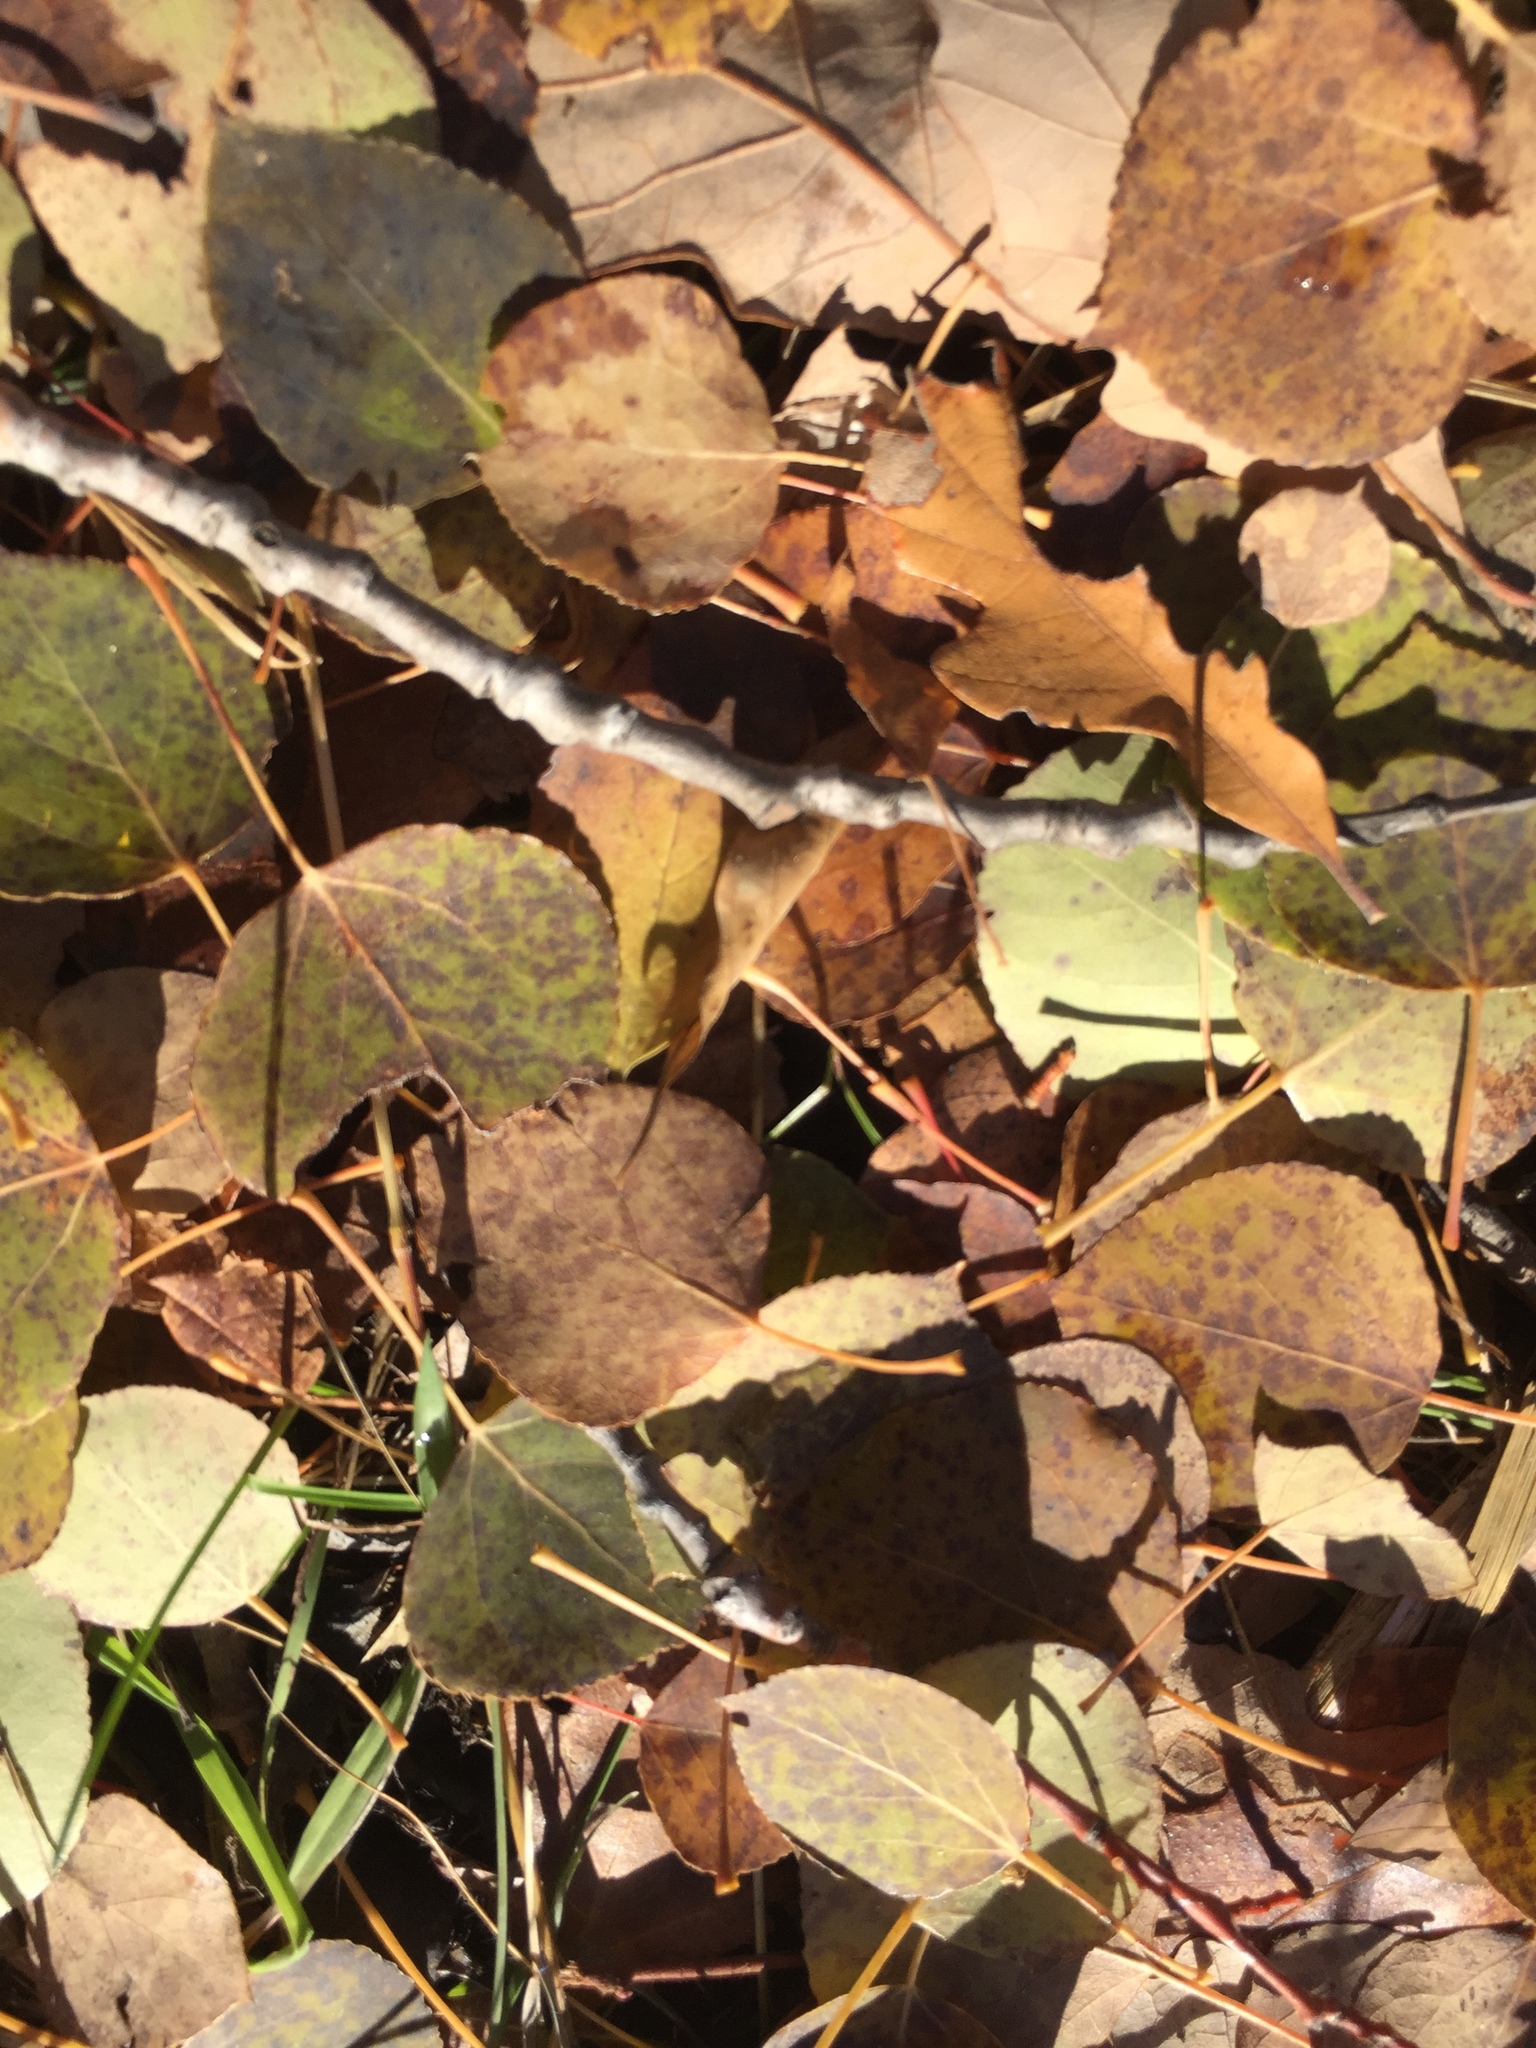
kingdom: Plantae
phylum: Tracheophyta
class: Magnoliopsida
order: Malpighiales
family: Salicaceae
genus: Populus
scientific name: Populus tremuloides
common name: Quaking aspen
